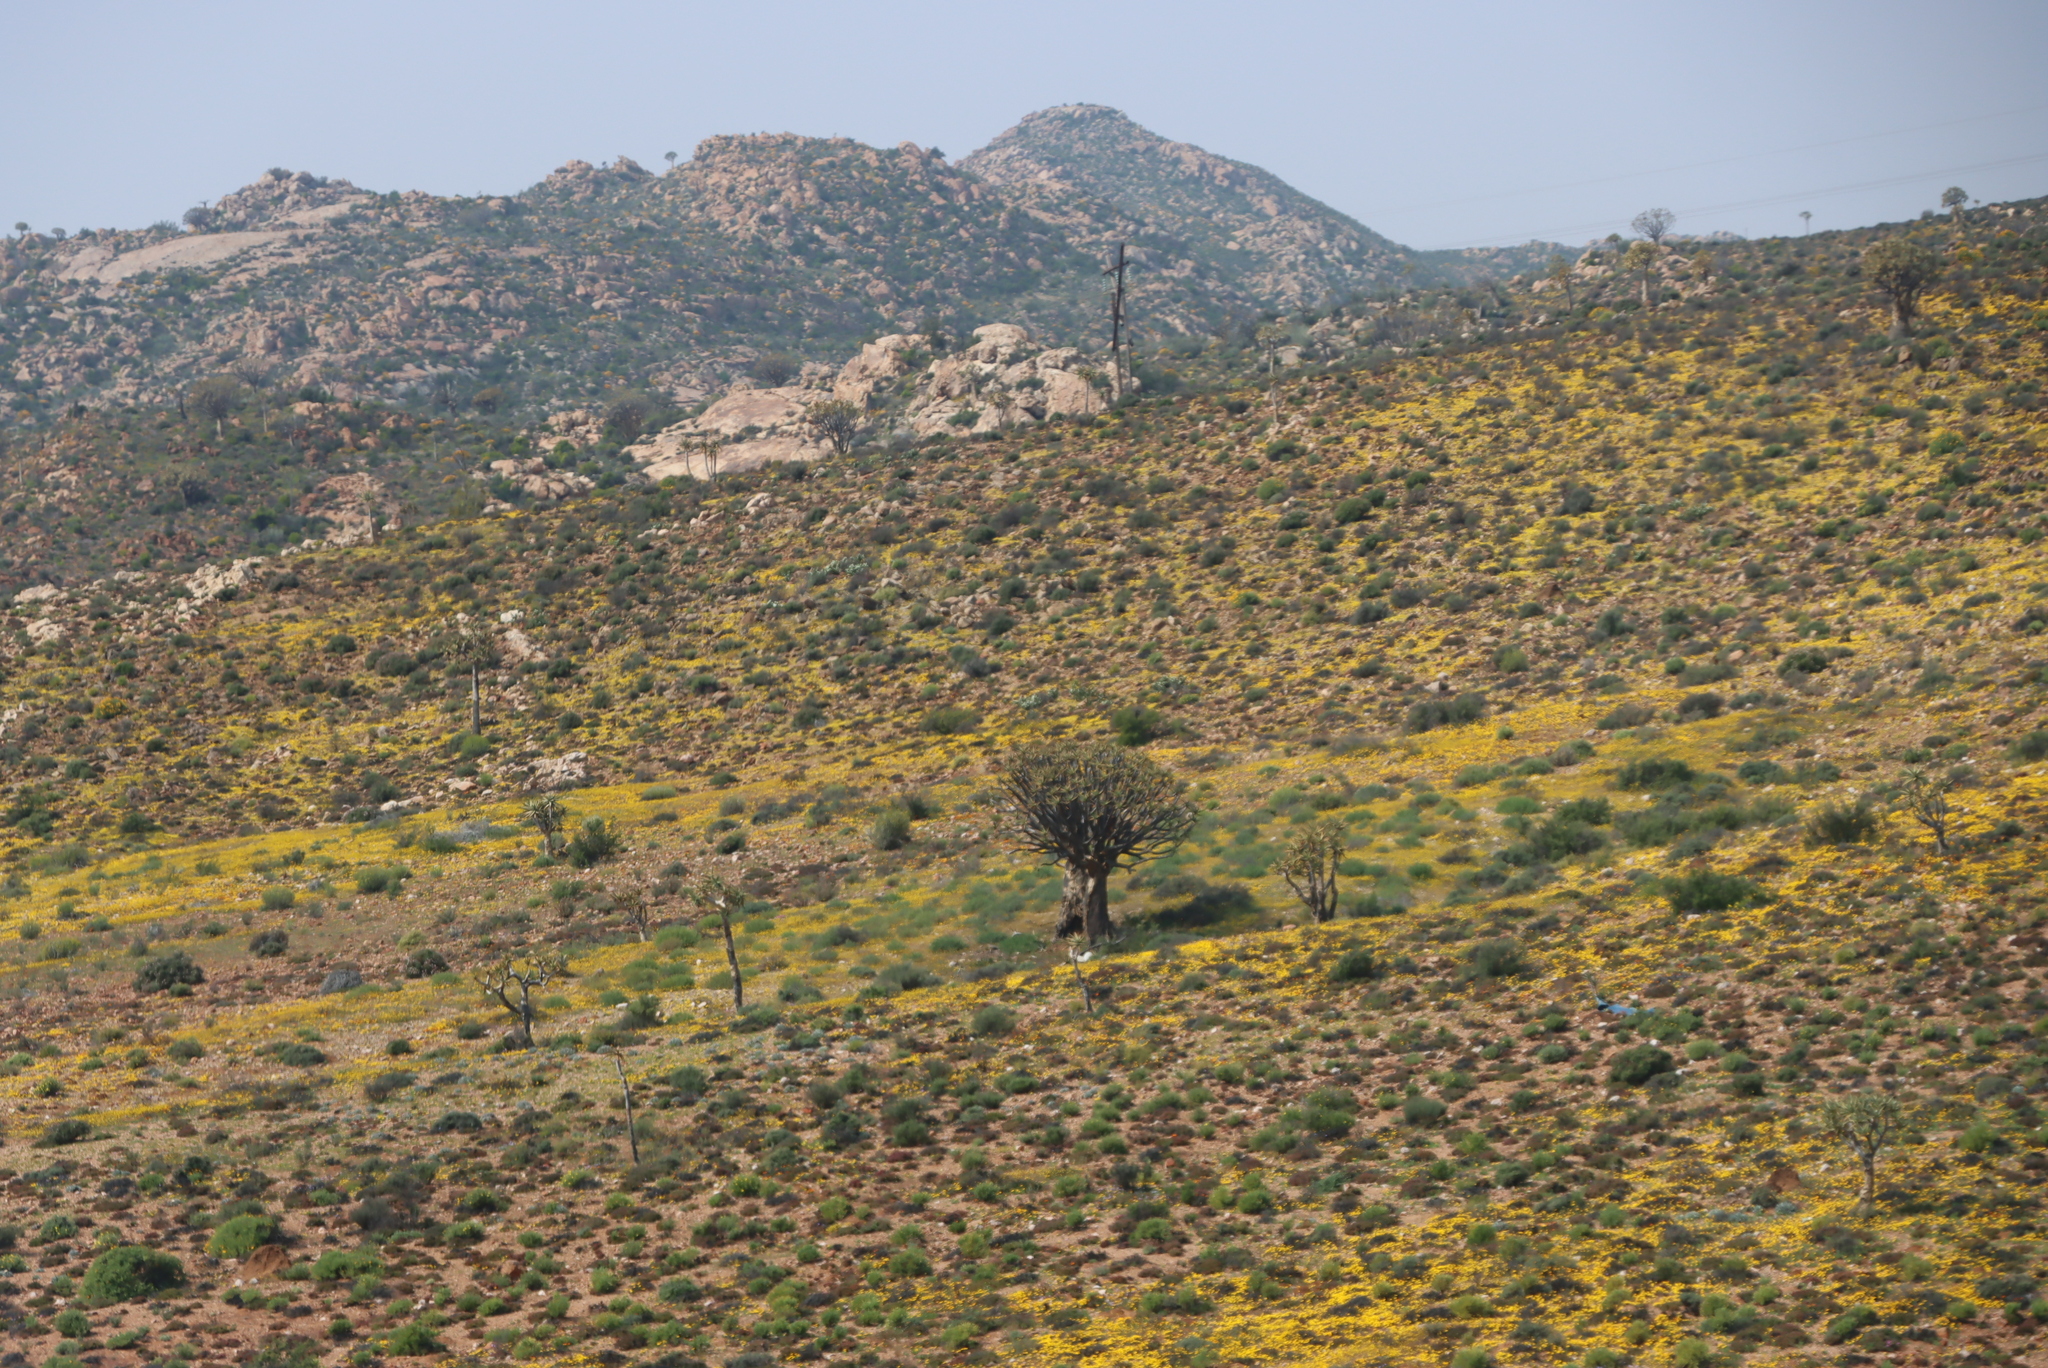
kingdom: Plantae
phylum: Tracheophyta
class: Liliopsida
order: Asparagales
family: Asphodelaceae
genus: Aloidendron
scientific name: Aloidendron dichotomum
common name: Quiver tree
